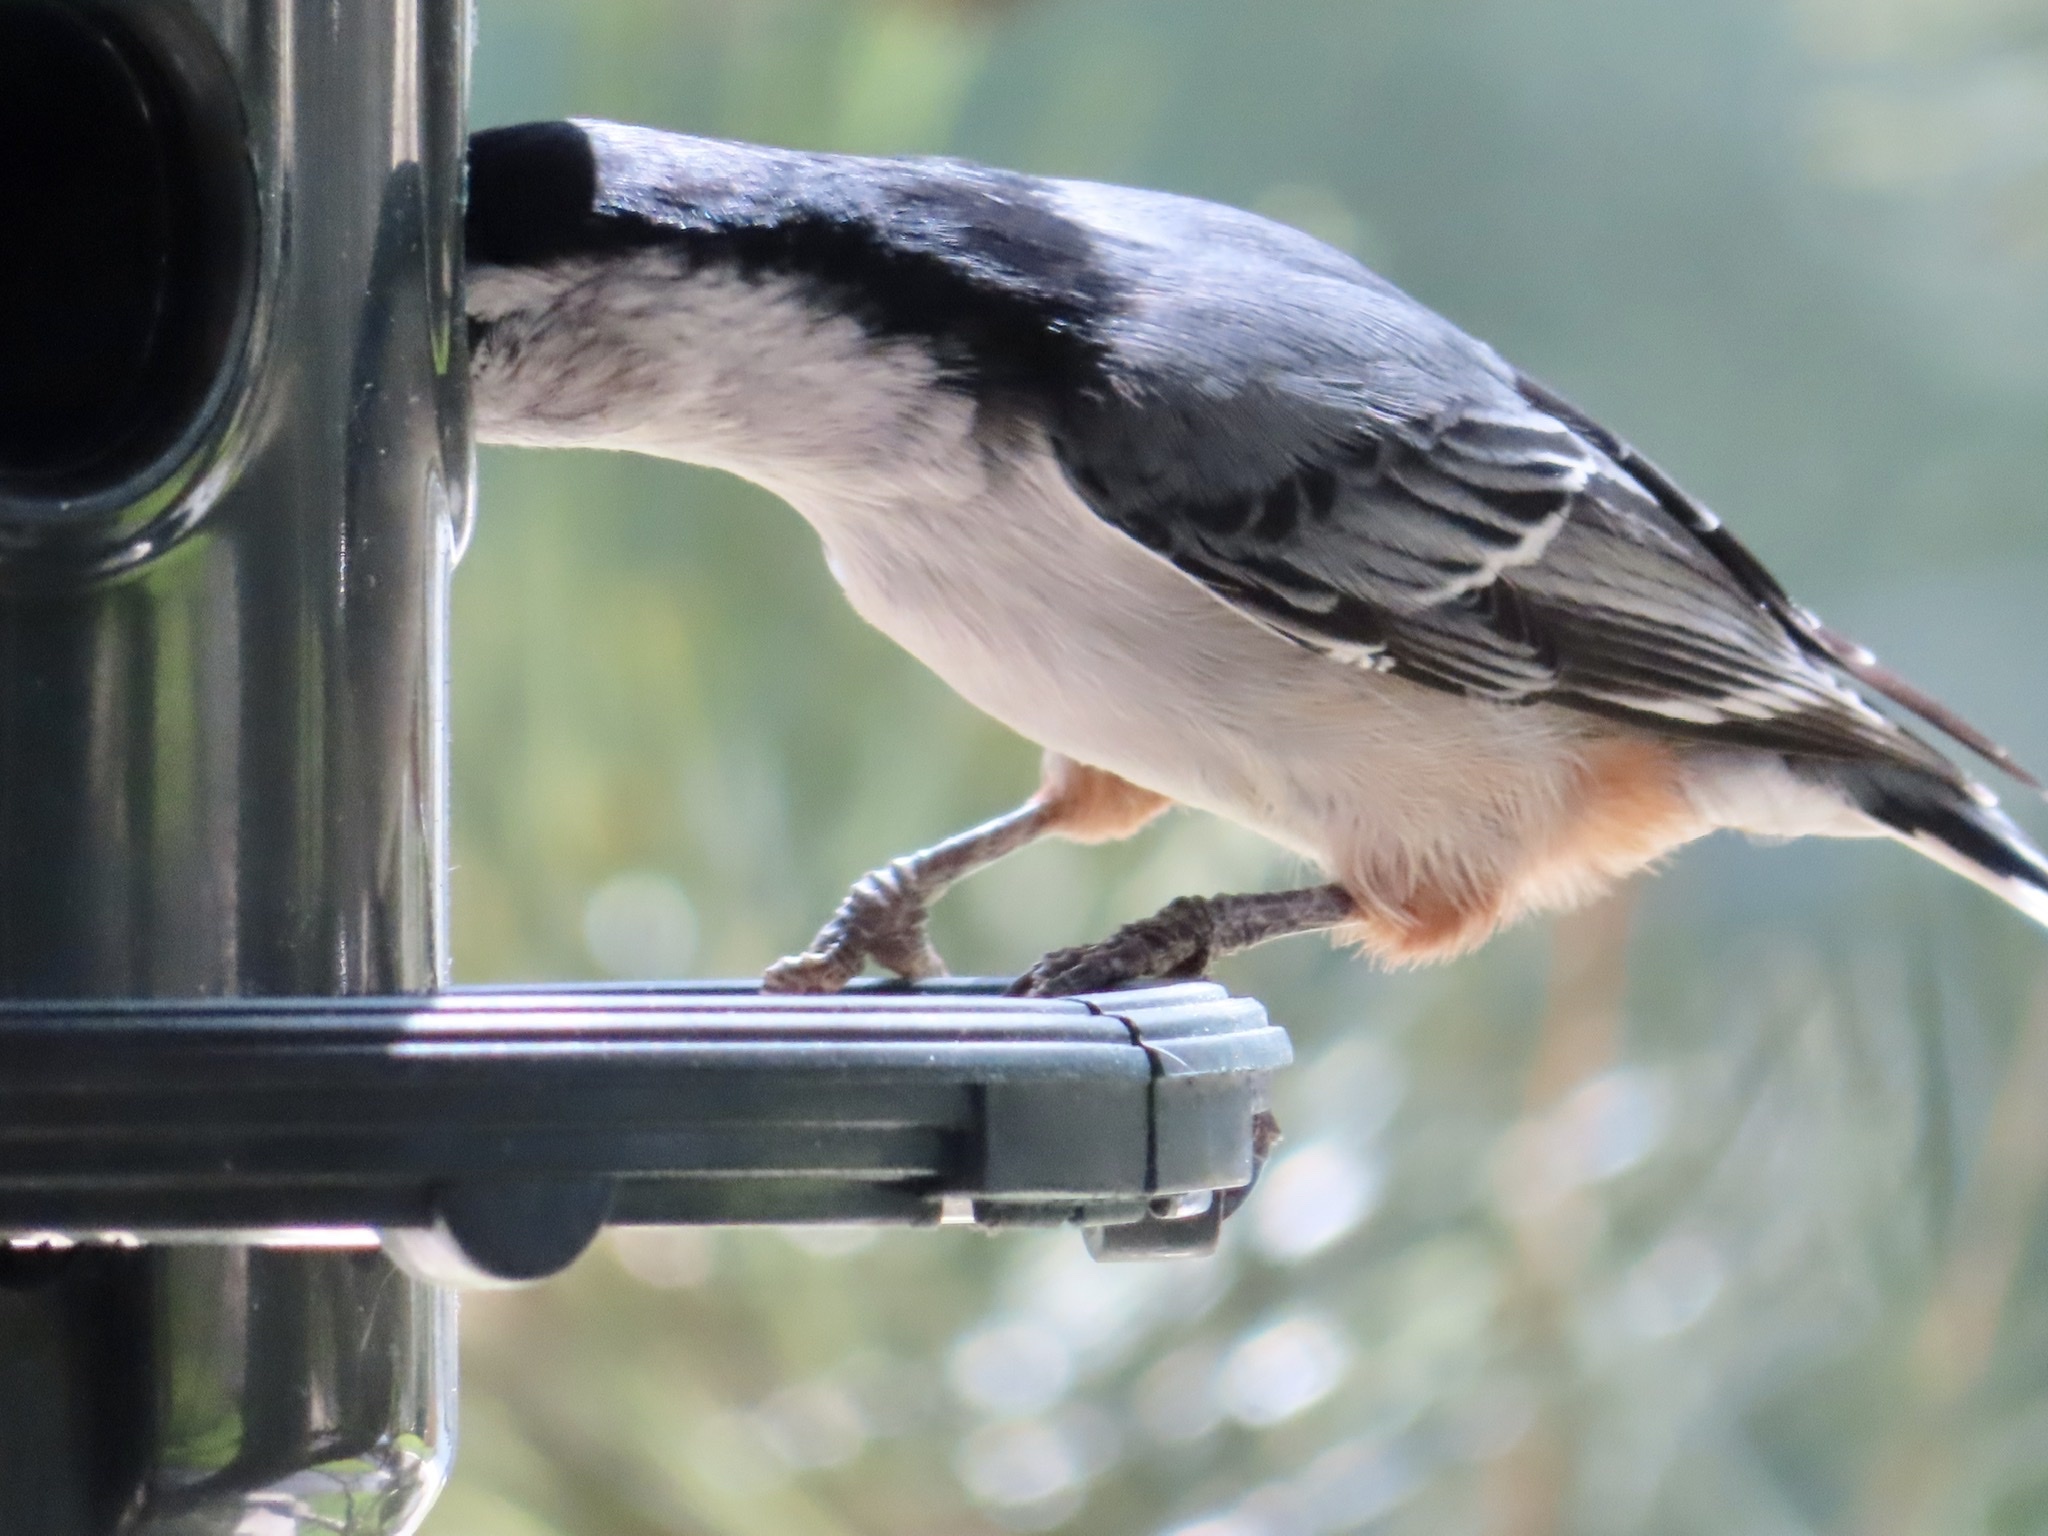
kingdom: Animalia
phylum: Chordata
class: Aves
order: Passeriformes
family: Sittidae
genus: Sitta
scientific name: Sitta carolinensis
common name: White-breasted nuthatch
